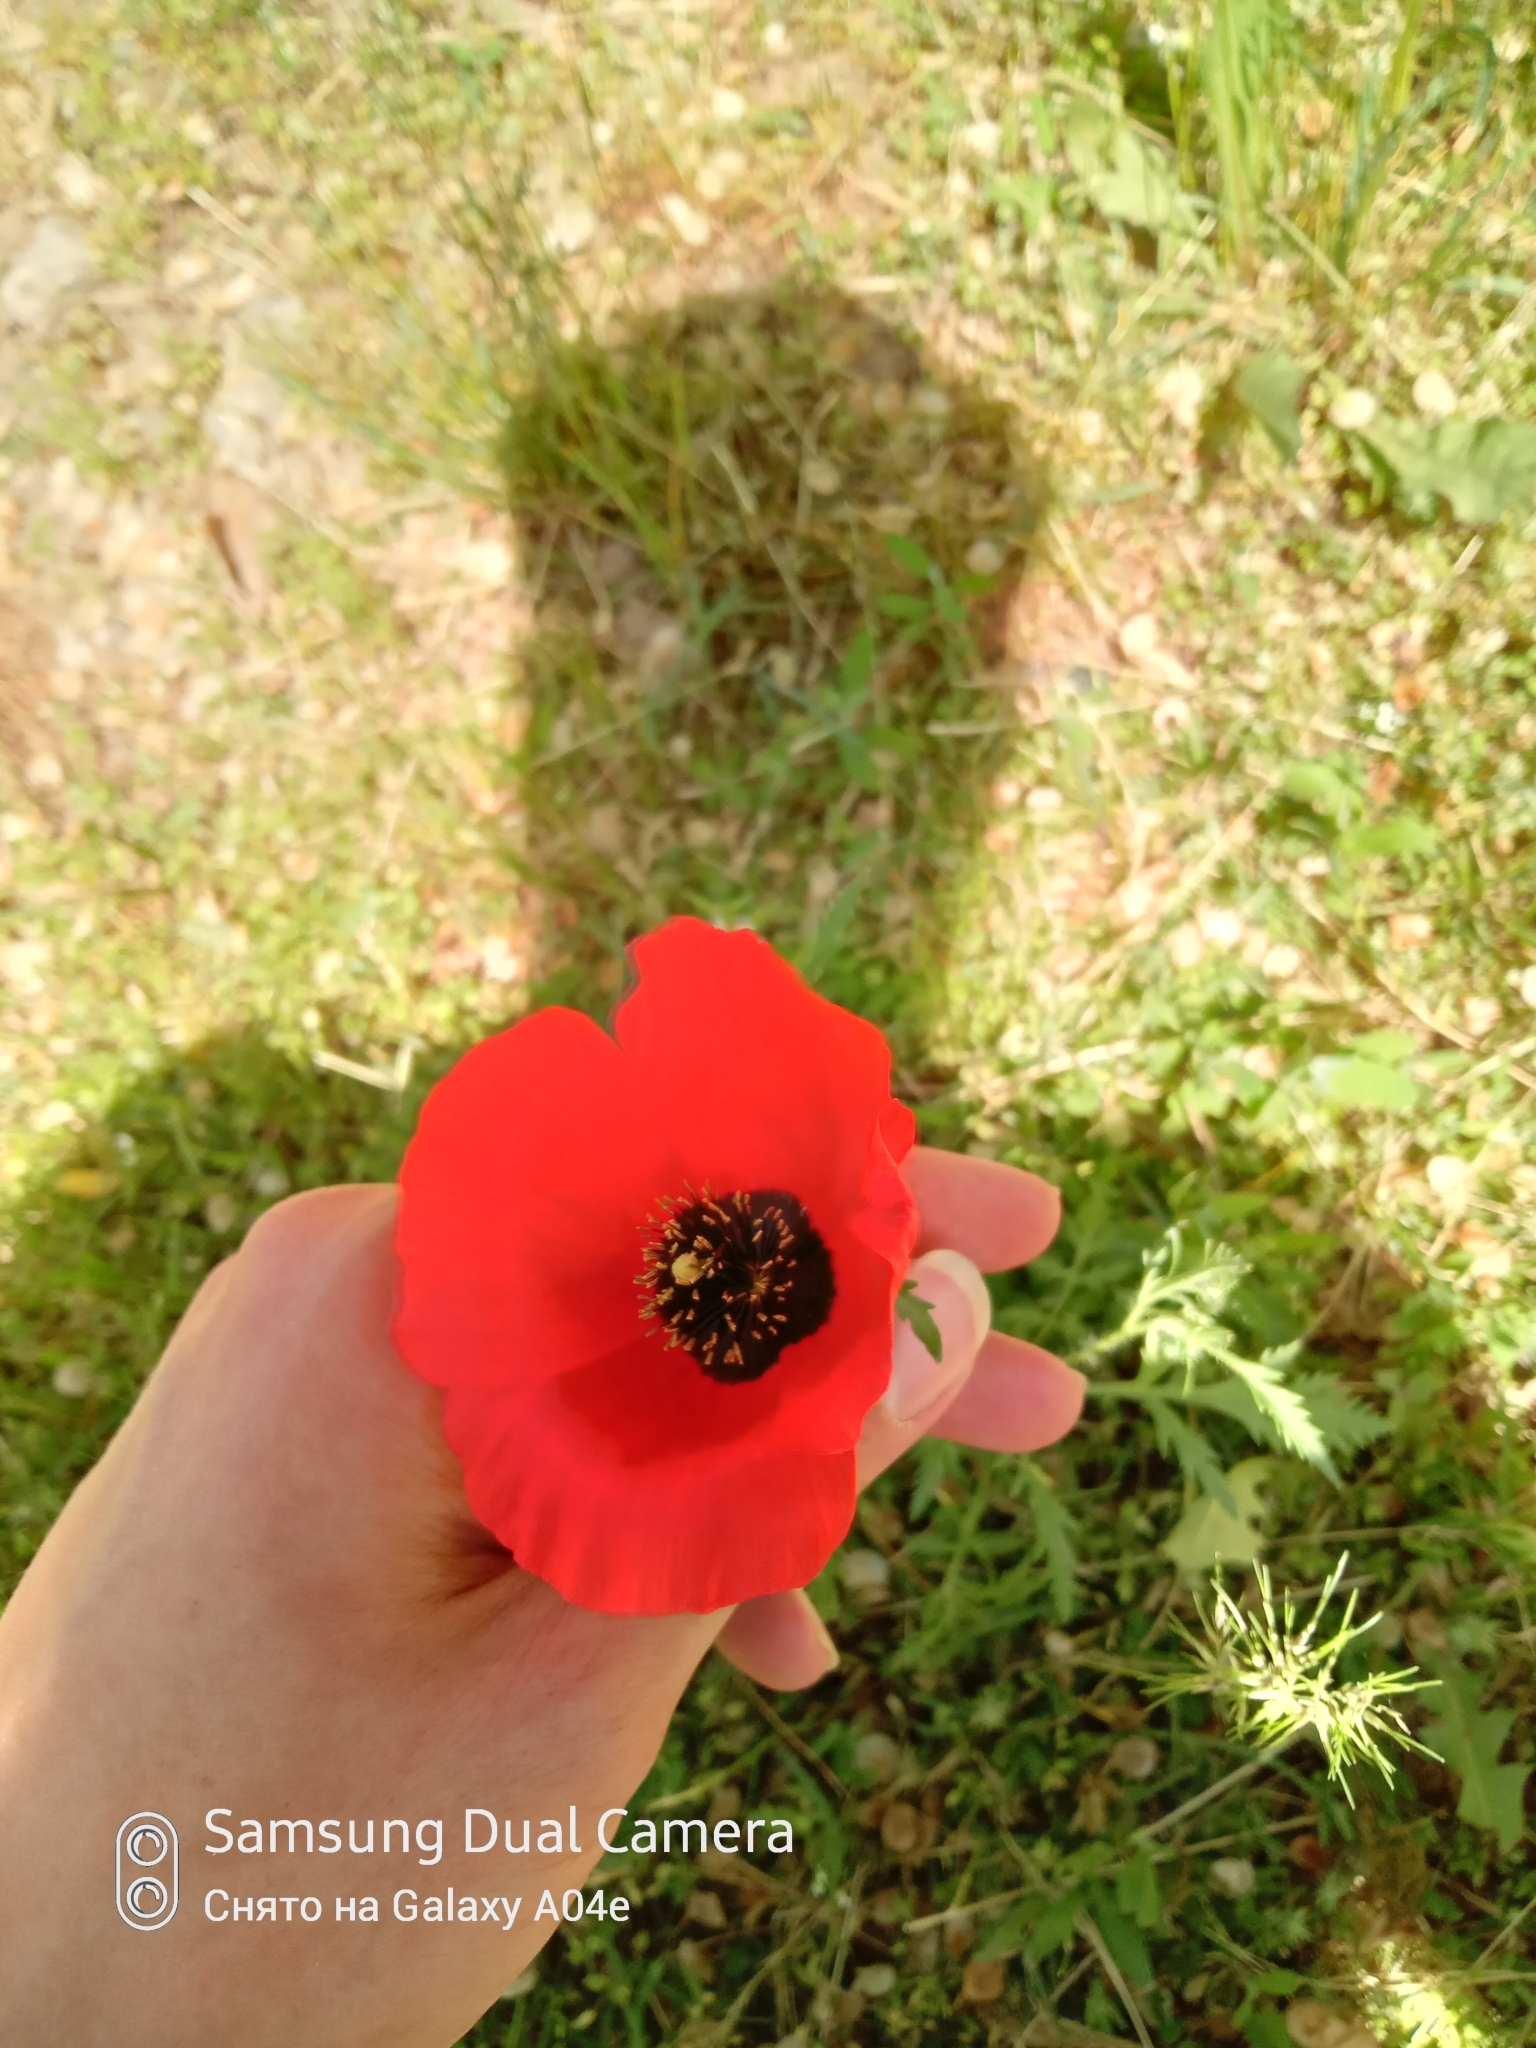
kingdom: Plantae
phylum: Tracheophyta
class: Magnoliopsida
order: Ranunculales
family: Papaveraceae
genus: Roemeria
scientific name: Roemeria refracta
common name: Spotted asian poppy
